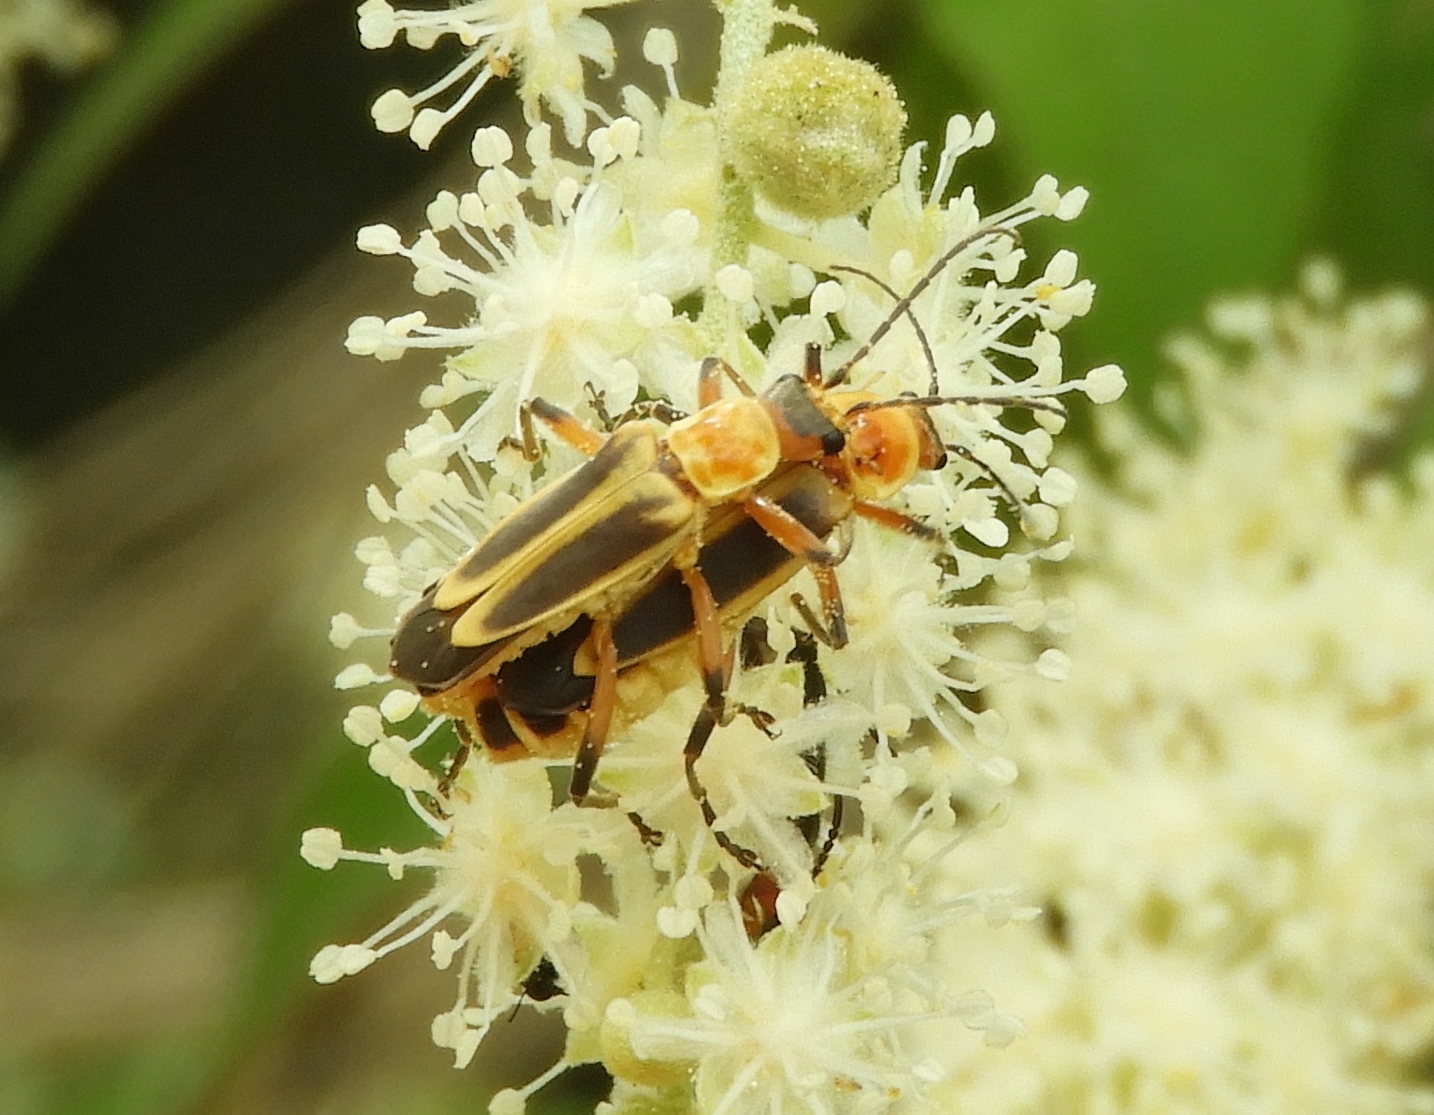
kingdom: Animalia
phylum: Arthropoda
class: Insecta
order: Coleoptera
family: Cantharidae
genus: Chauliognathus
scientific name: Chauliognathus
